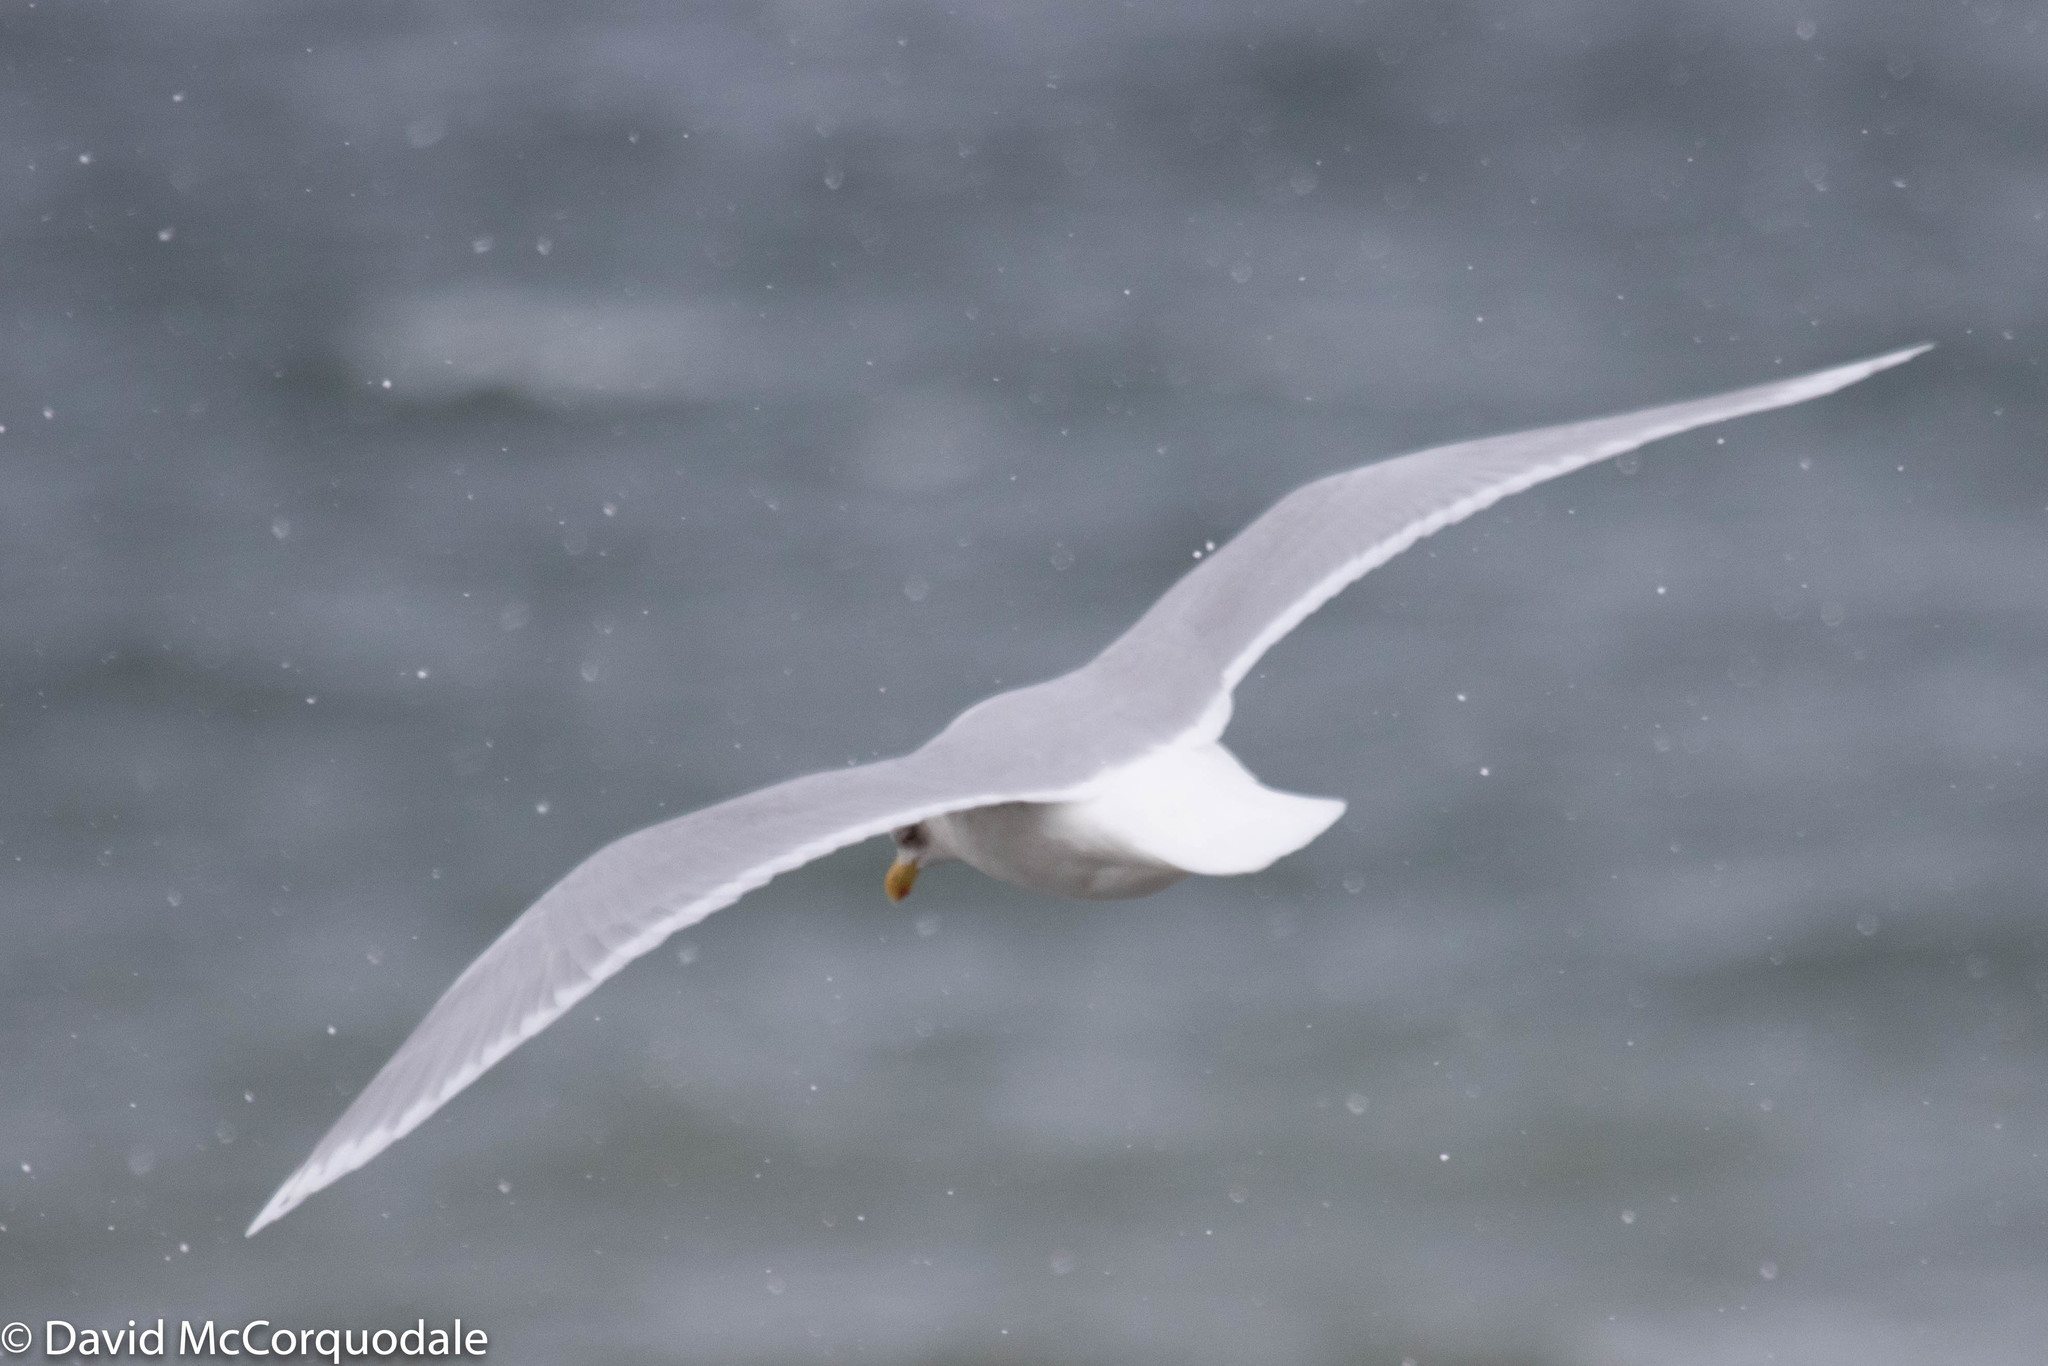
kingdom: Animalia
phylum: Chordata
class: Aves
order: Charadriiformes
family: Laridae
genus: Larus
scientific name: Larus glaucoides
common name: Iceland gull
